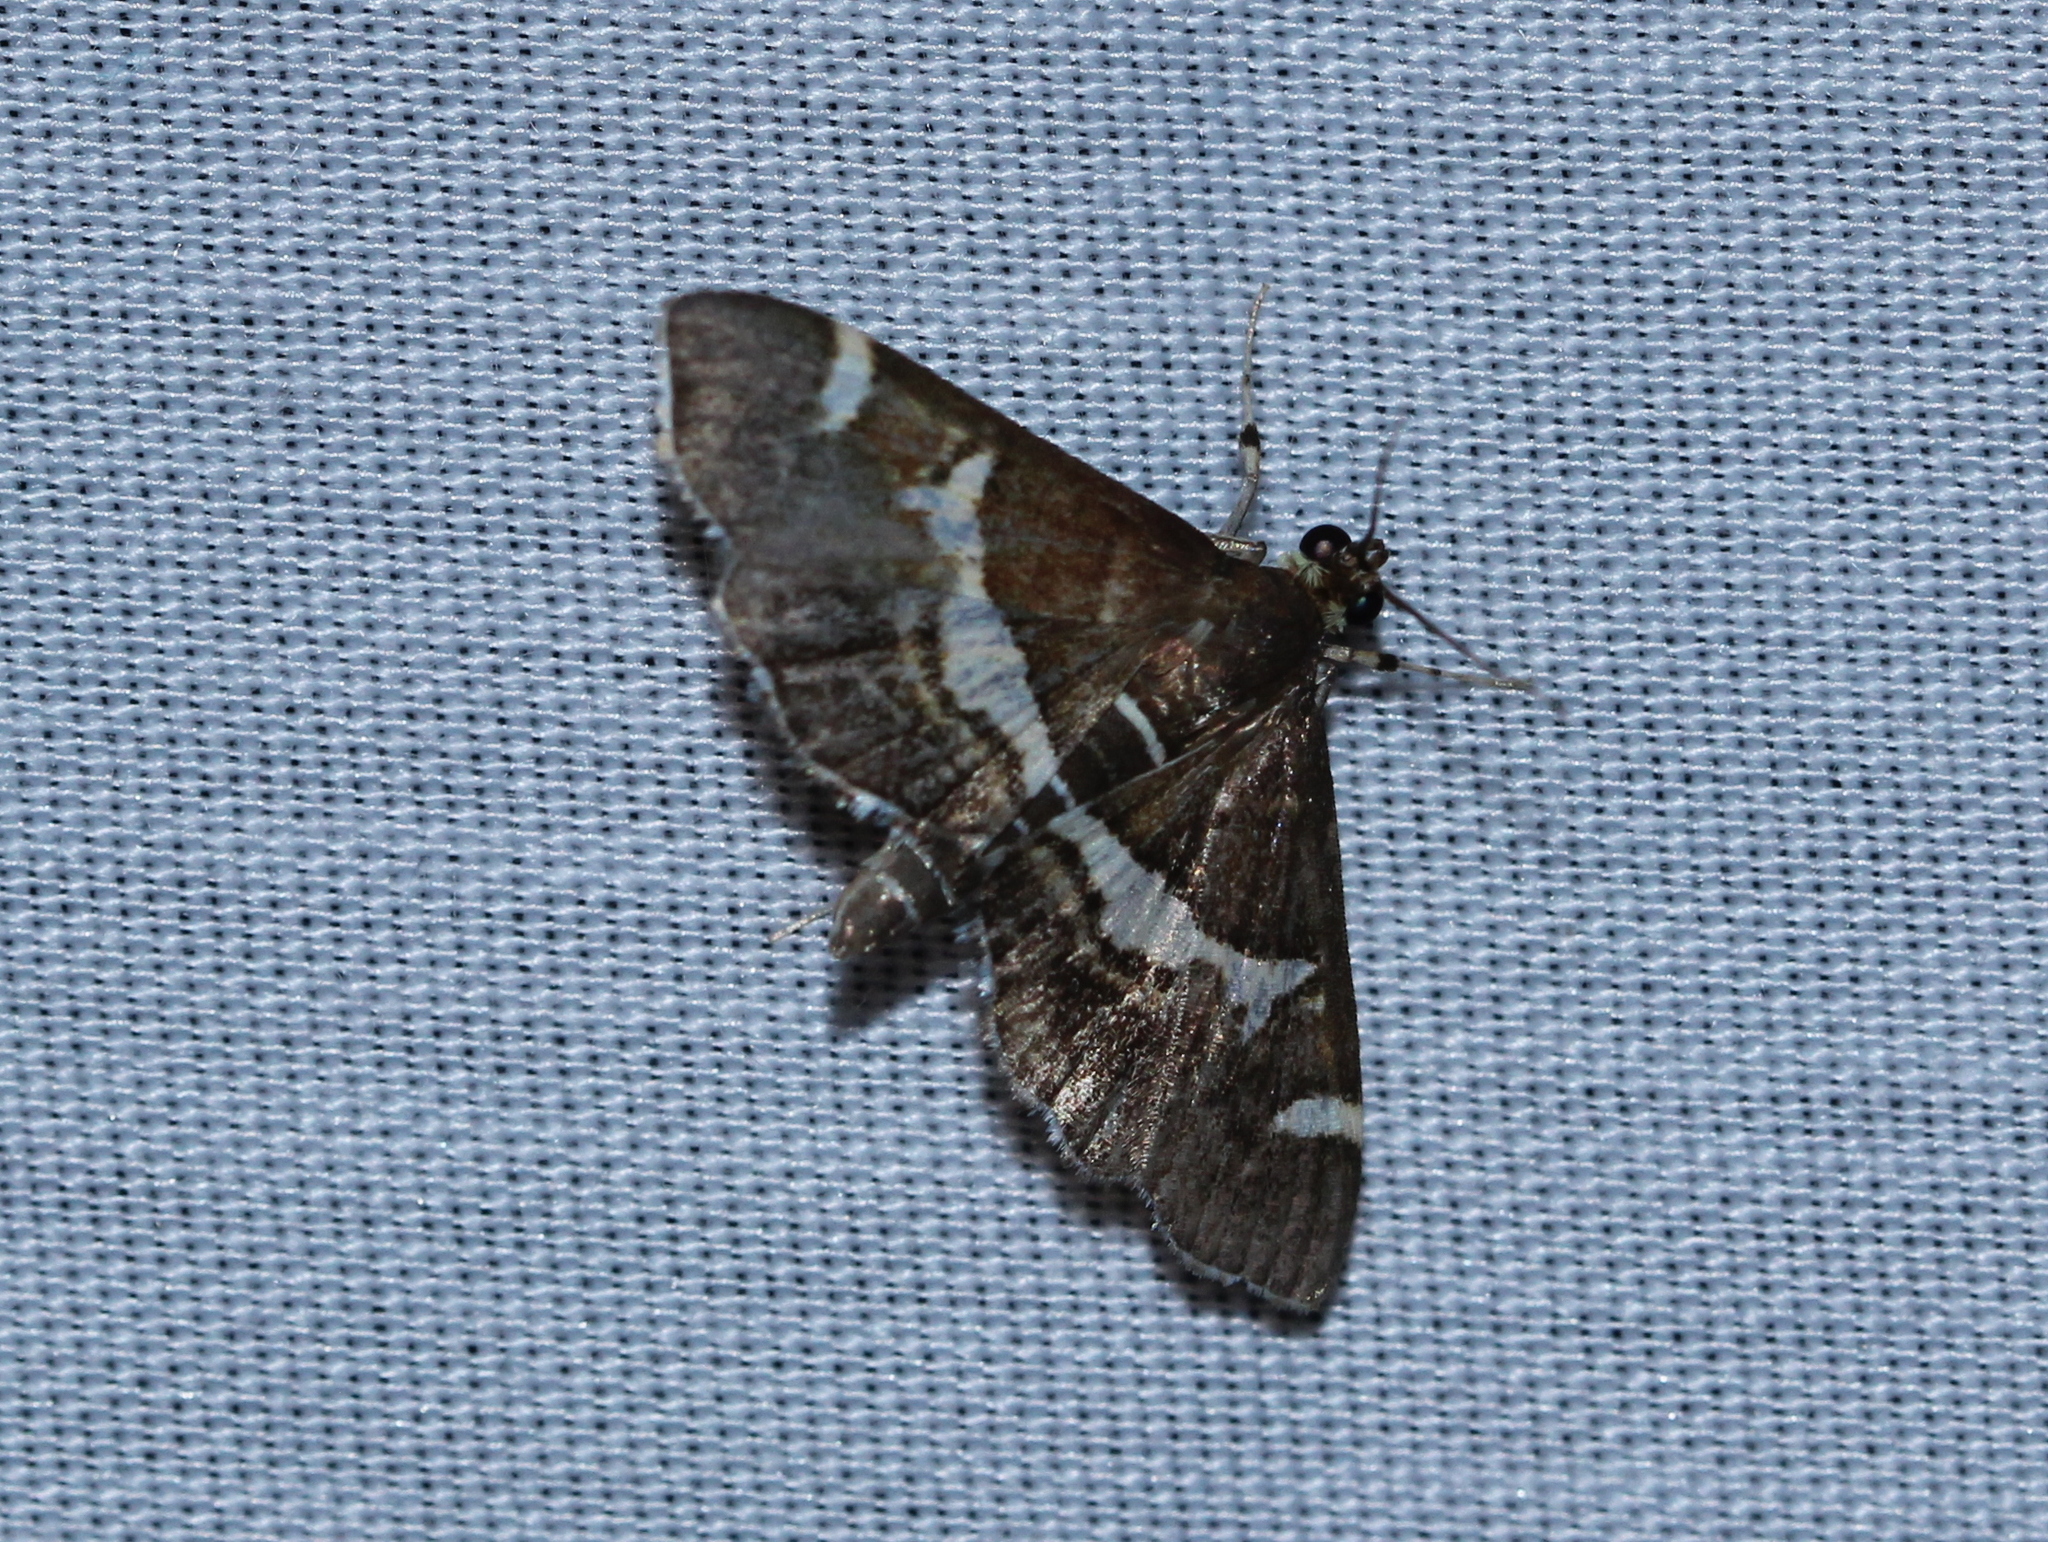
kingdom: Animalia
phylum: Arthropoda
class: Insecta
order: Lepidoptera
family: Crambidae
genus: Spoladea
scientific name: Spoladea recurvalis
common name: Beet webworm moth
